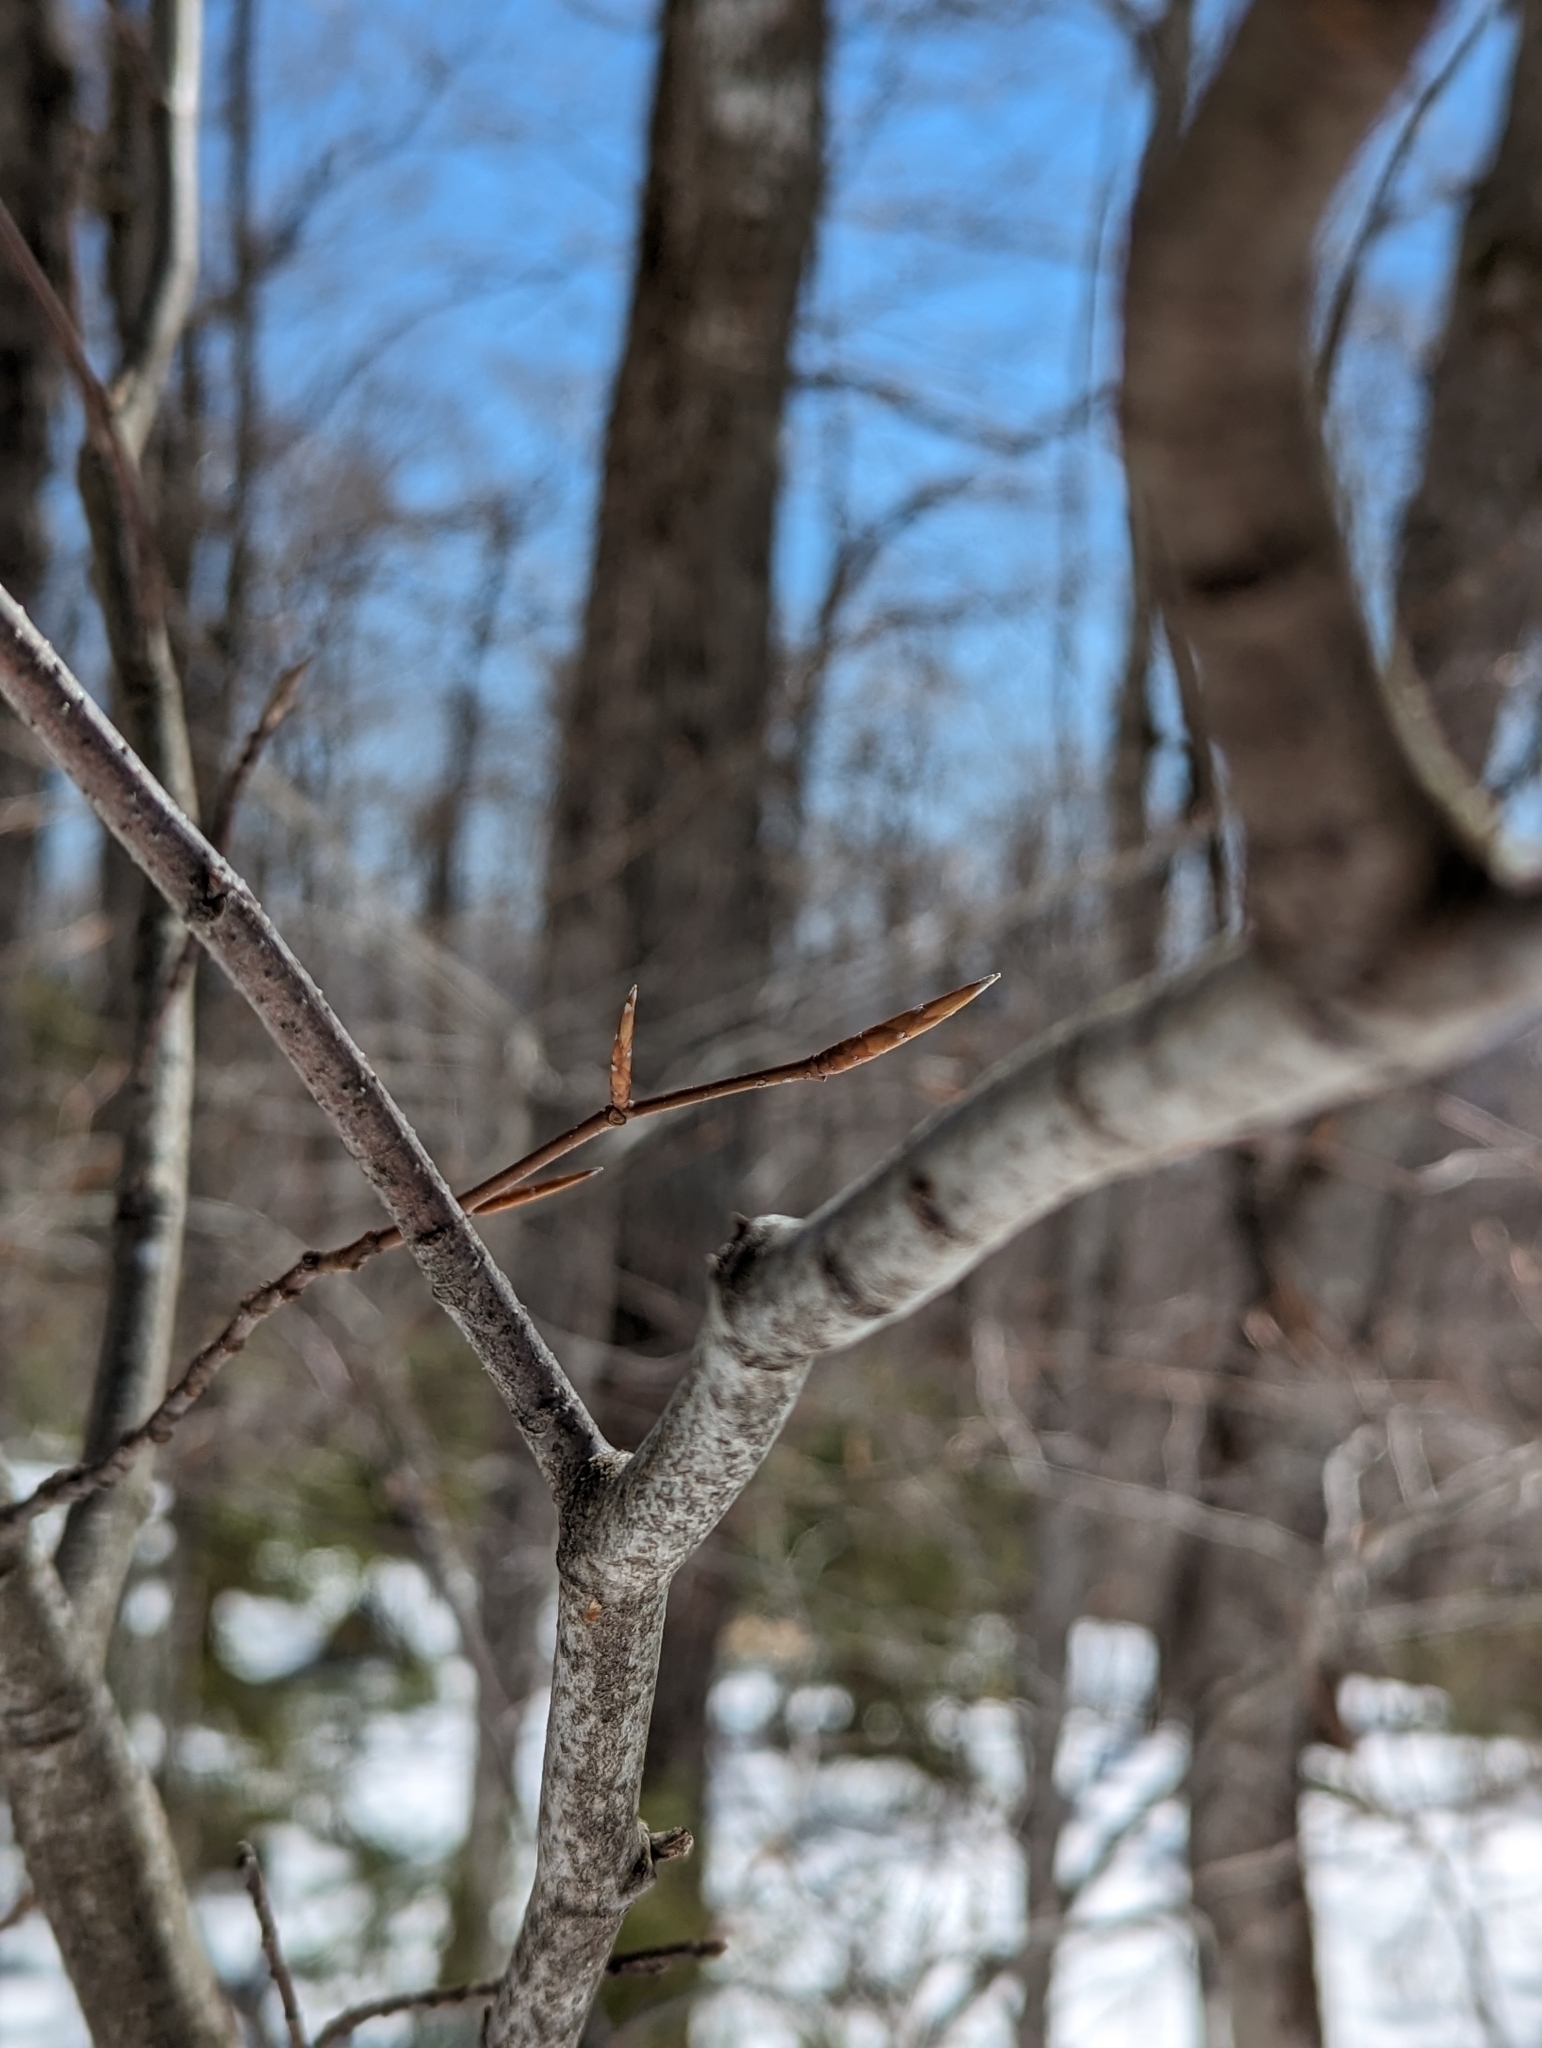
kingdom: Plantae
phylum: Tracheophyta
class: Magnoliopsida
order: Fagales
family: Fagaceae
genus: Fagus
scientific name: Fagus grandifolia
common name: American beech
